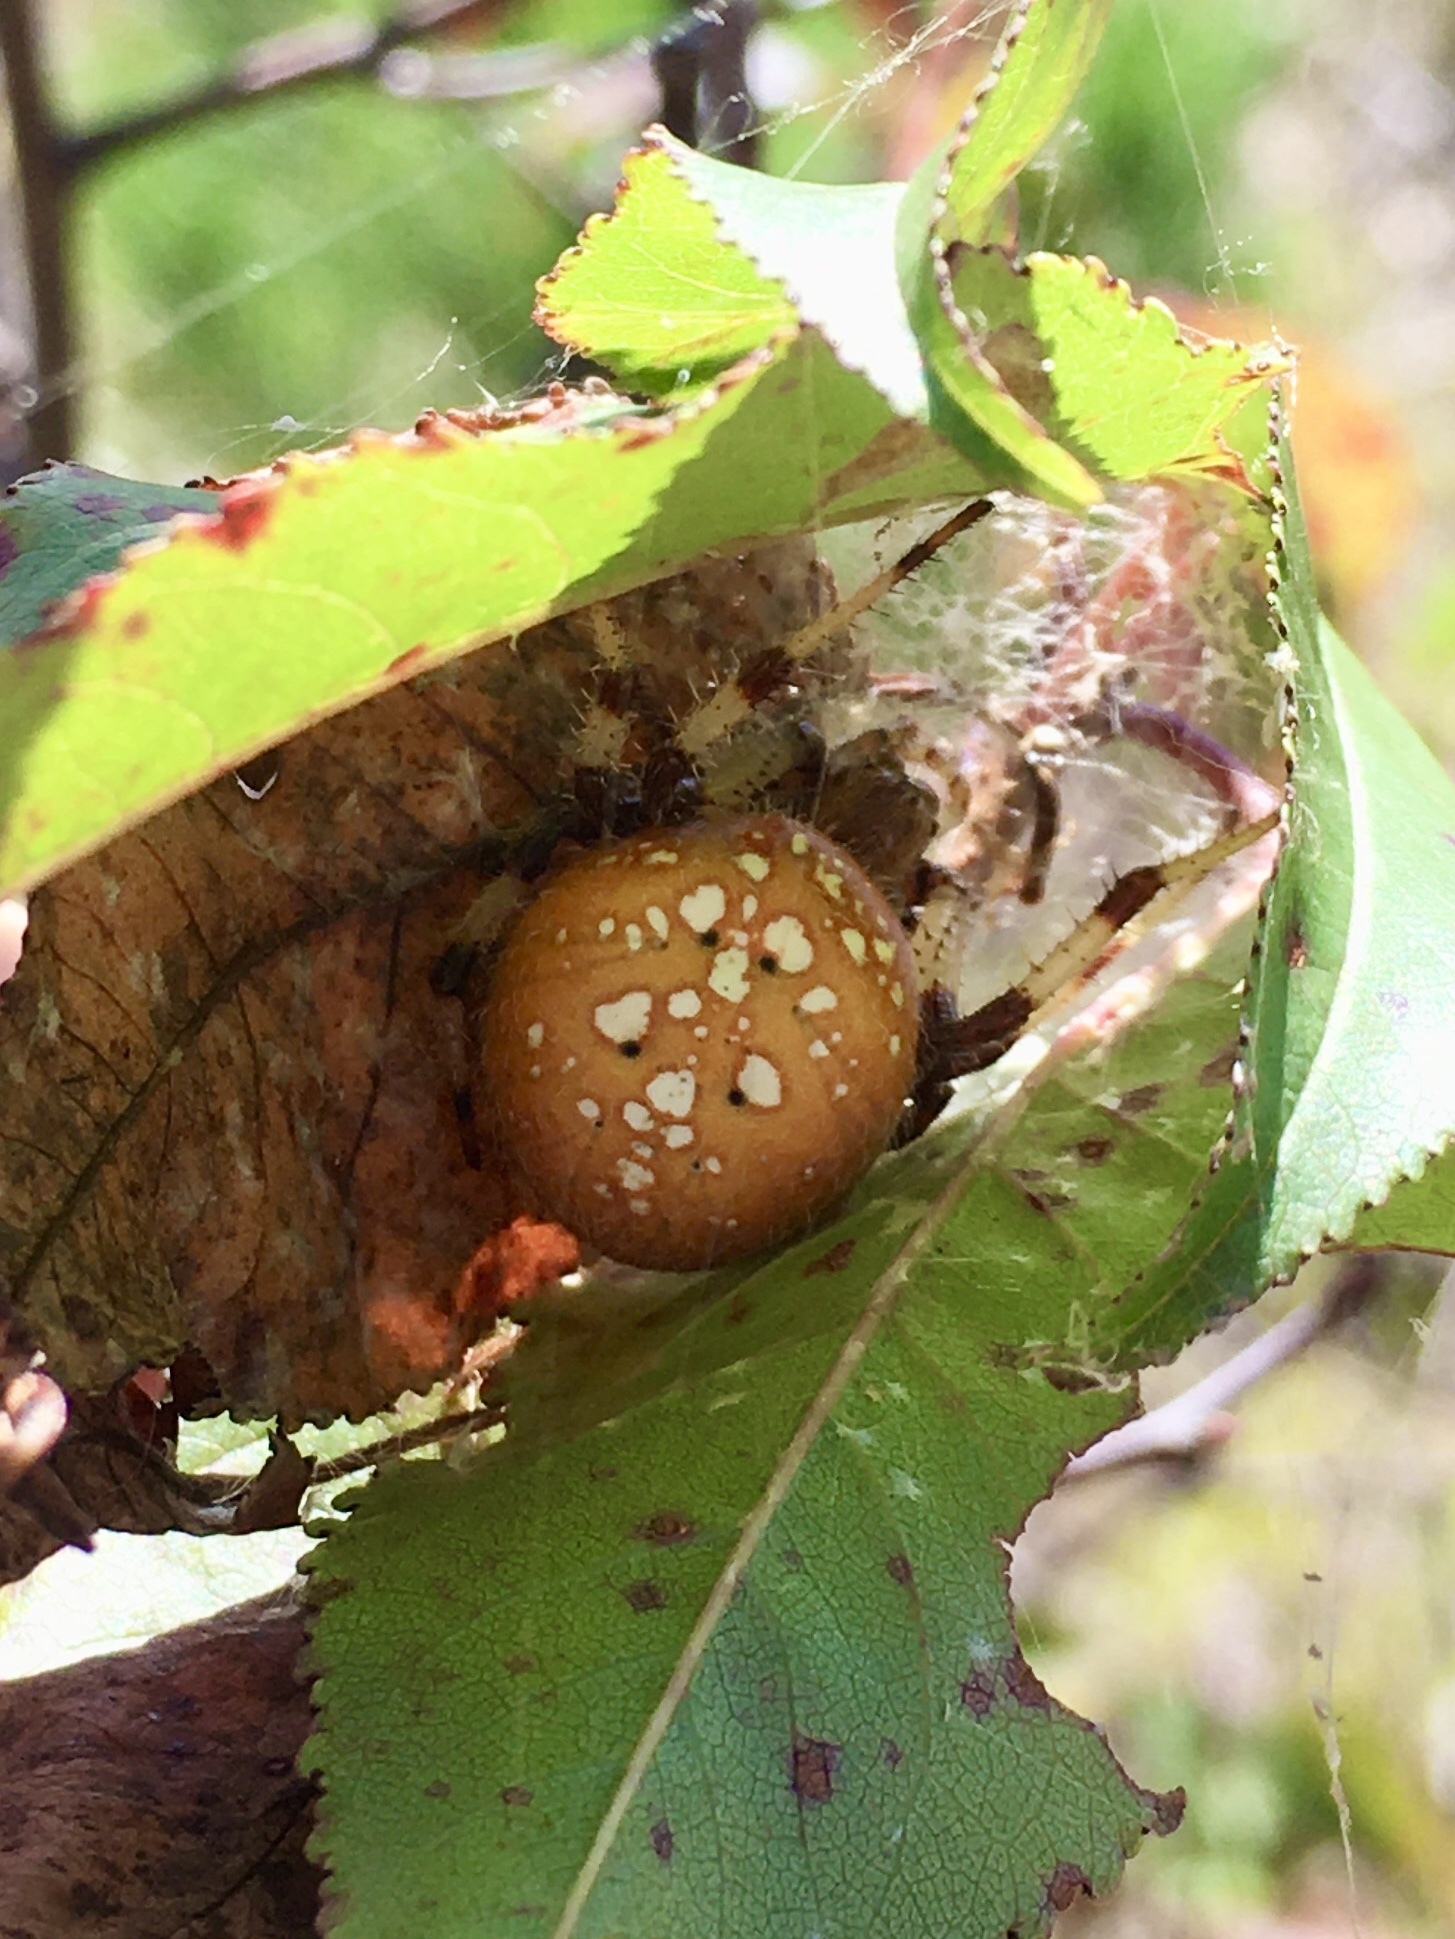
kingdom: Animalia
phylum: Arthropoda
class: Arachnida
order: Araneae
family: Araneidae
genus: Araneus
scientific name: Araneus trifolium
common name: Shamrock orbweaver
